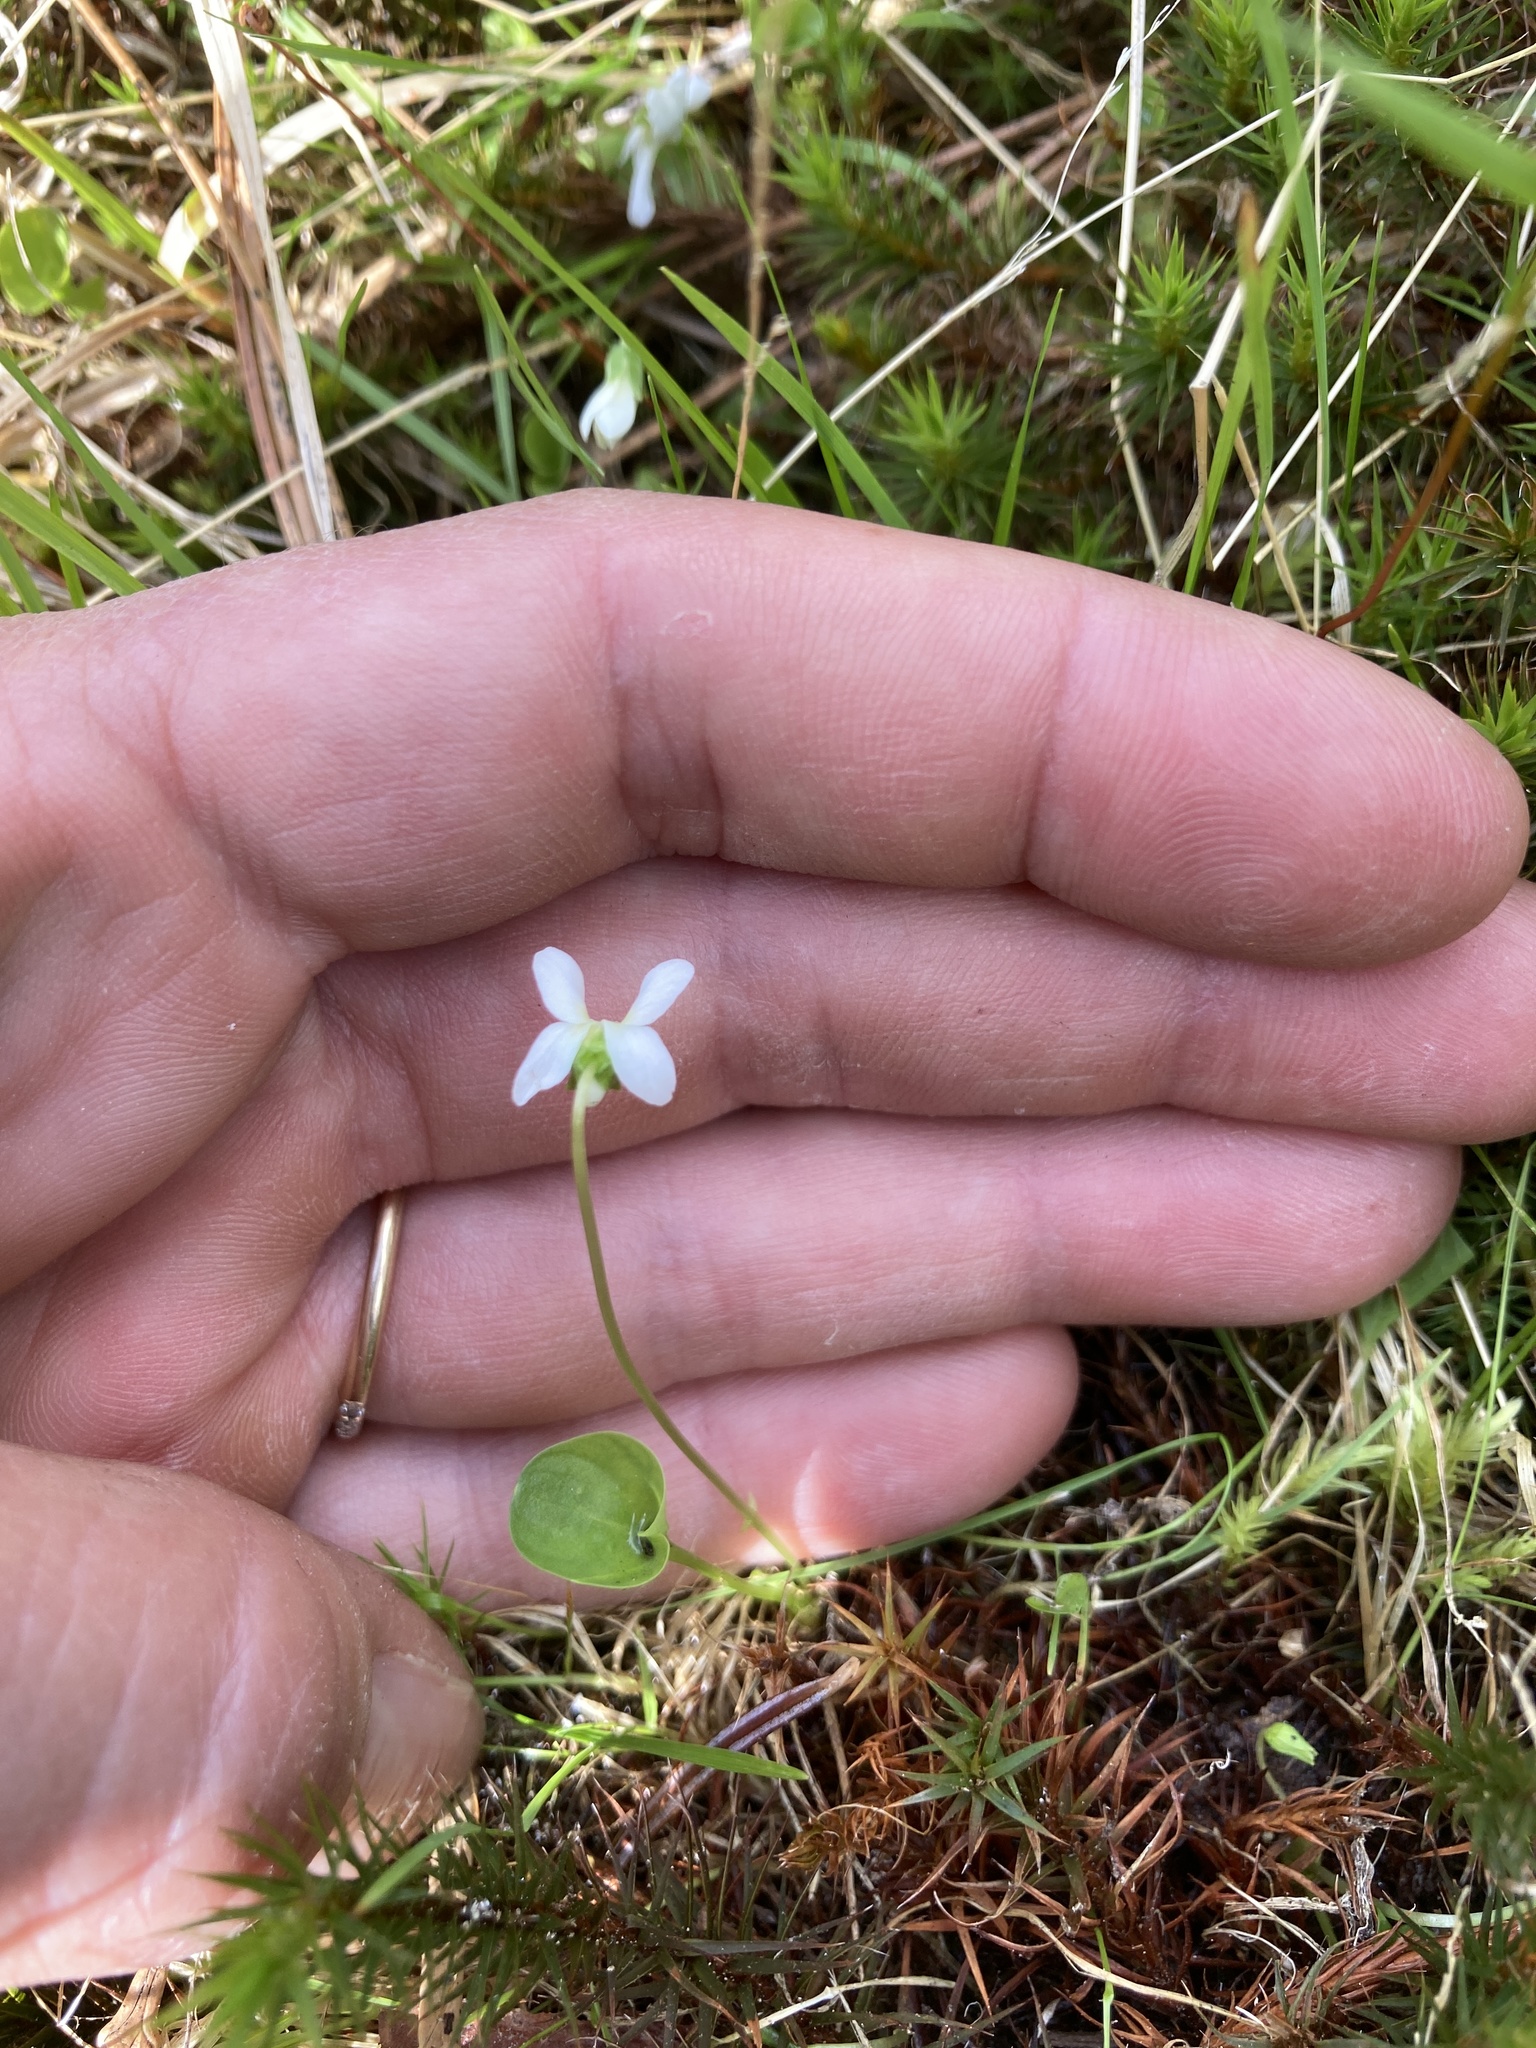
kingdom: Plantae
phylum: Tracheophyta
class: Magnoliopsida
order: Malpighiales
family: Violaceae
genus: Viola
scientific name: Viola macloskeyi
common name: Macloskey's violet
